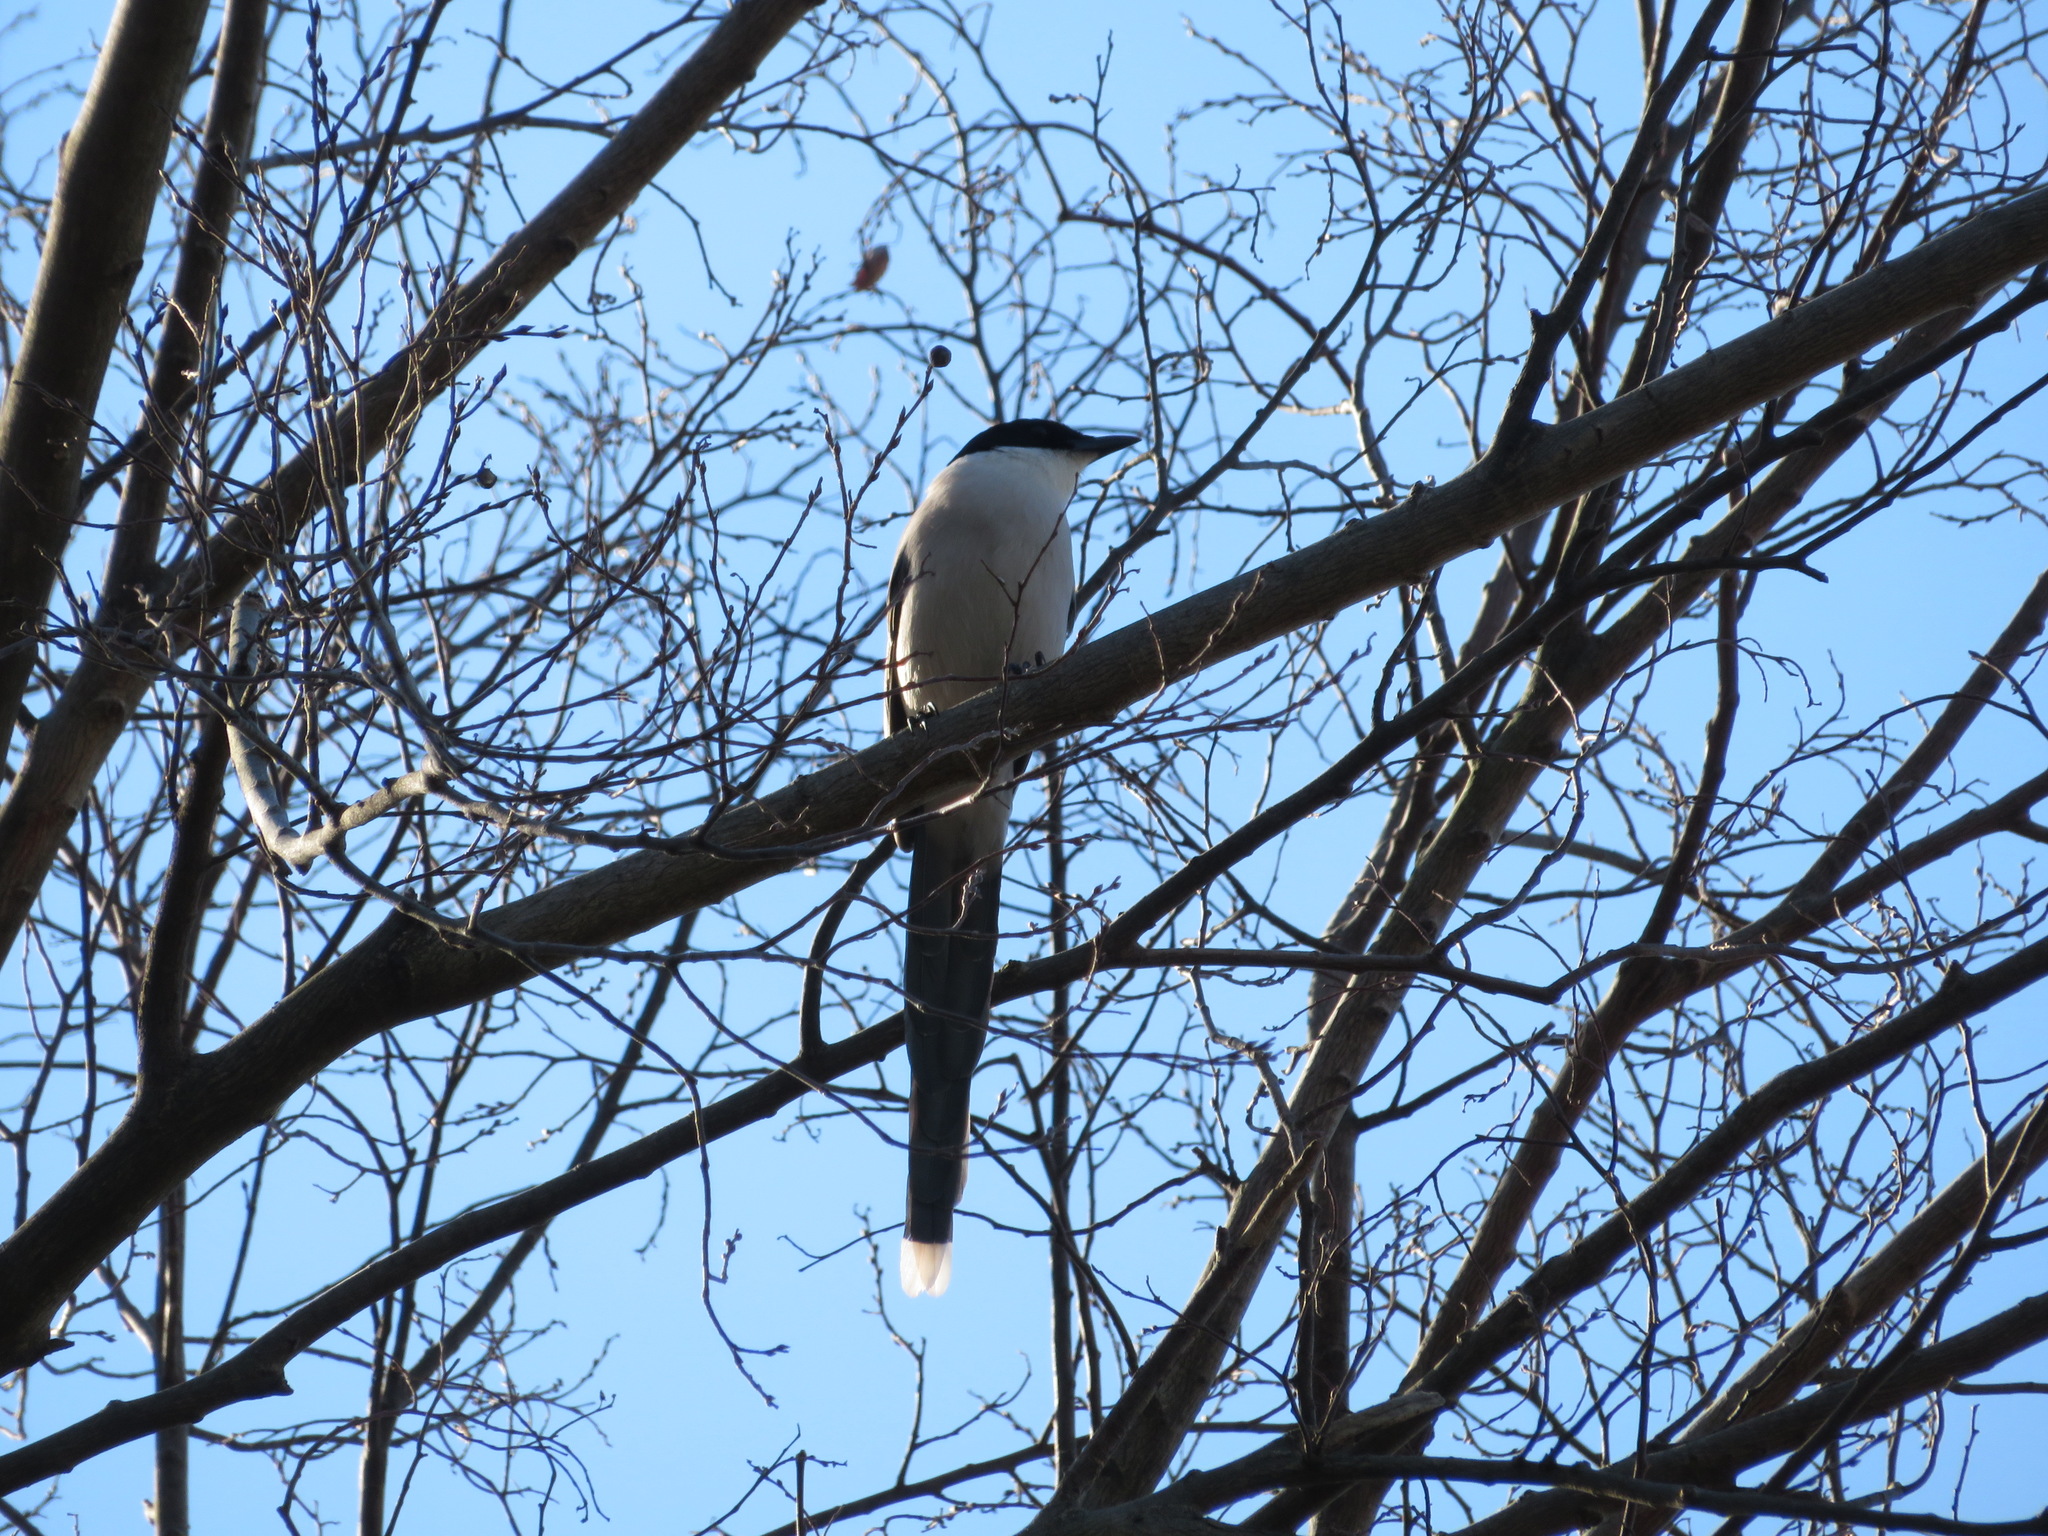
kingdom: Animalia
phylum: Chordata
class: Aves
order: Passeriformes
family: Corvidae
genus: Cyanopica
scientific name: Cyanopica cyanus
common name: Azure-winged magpie
